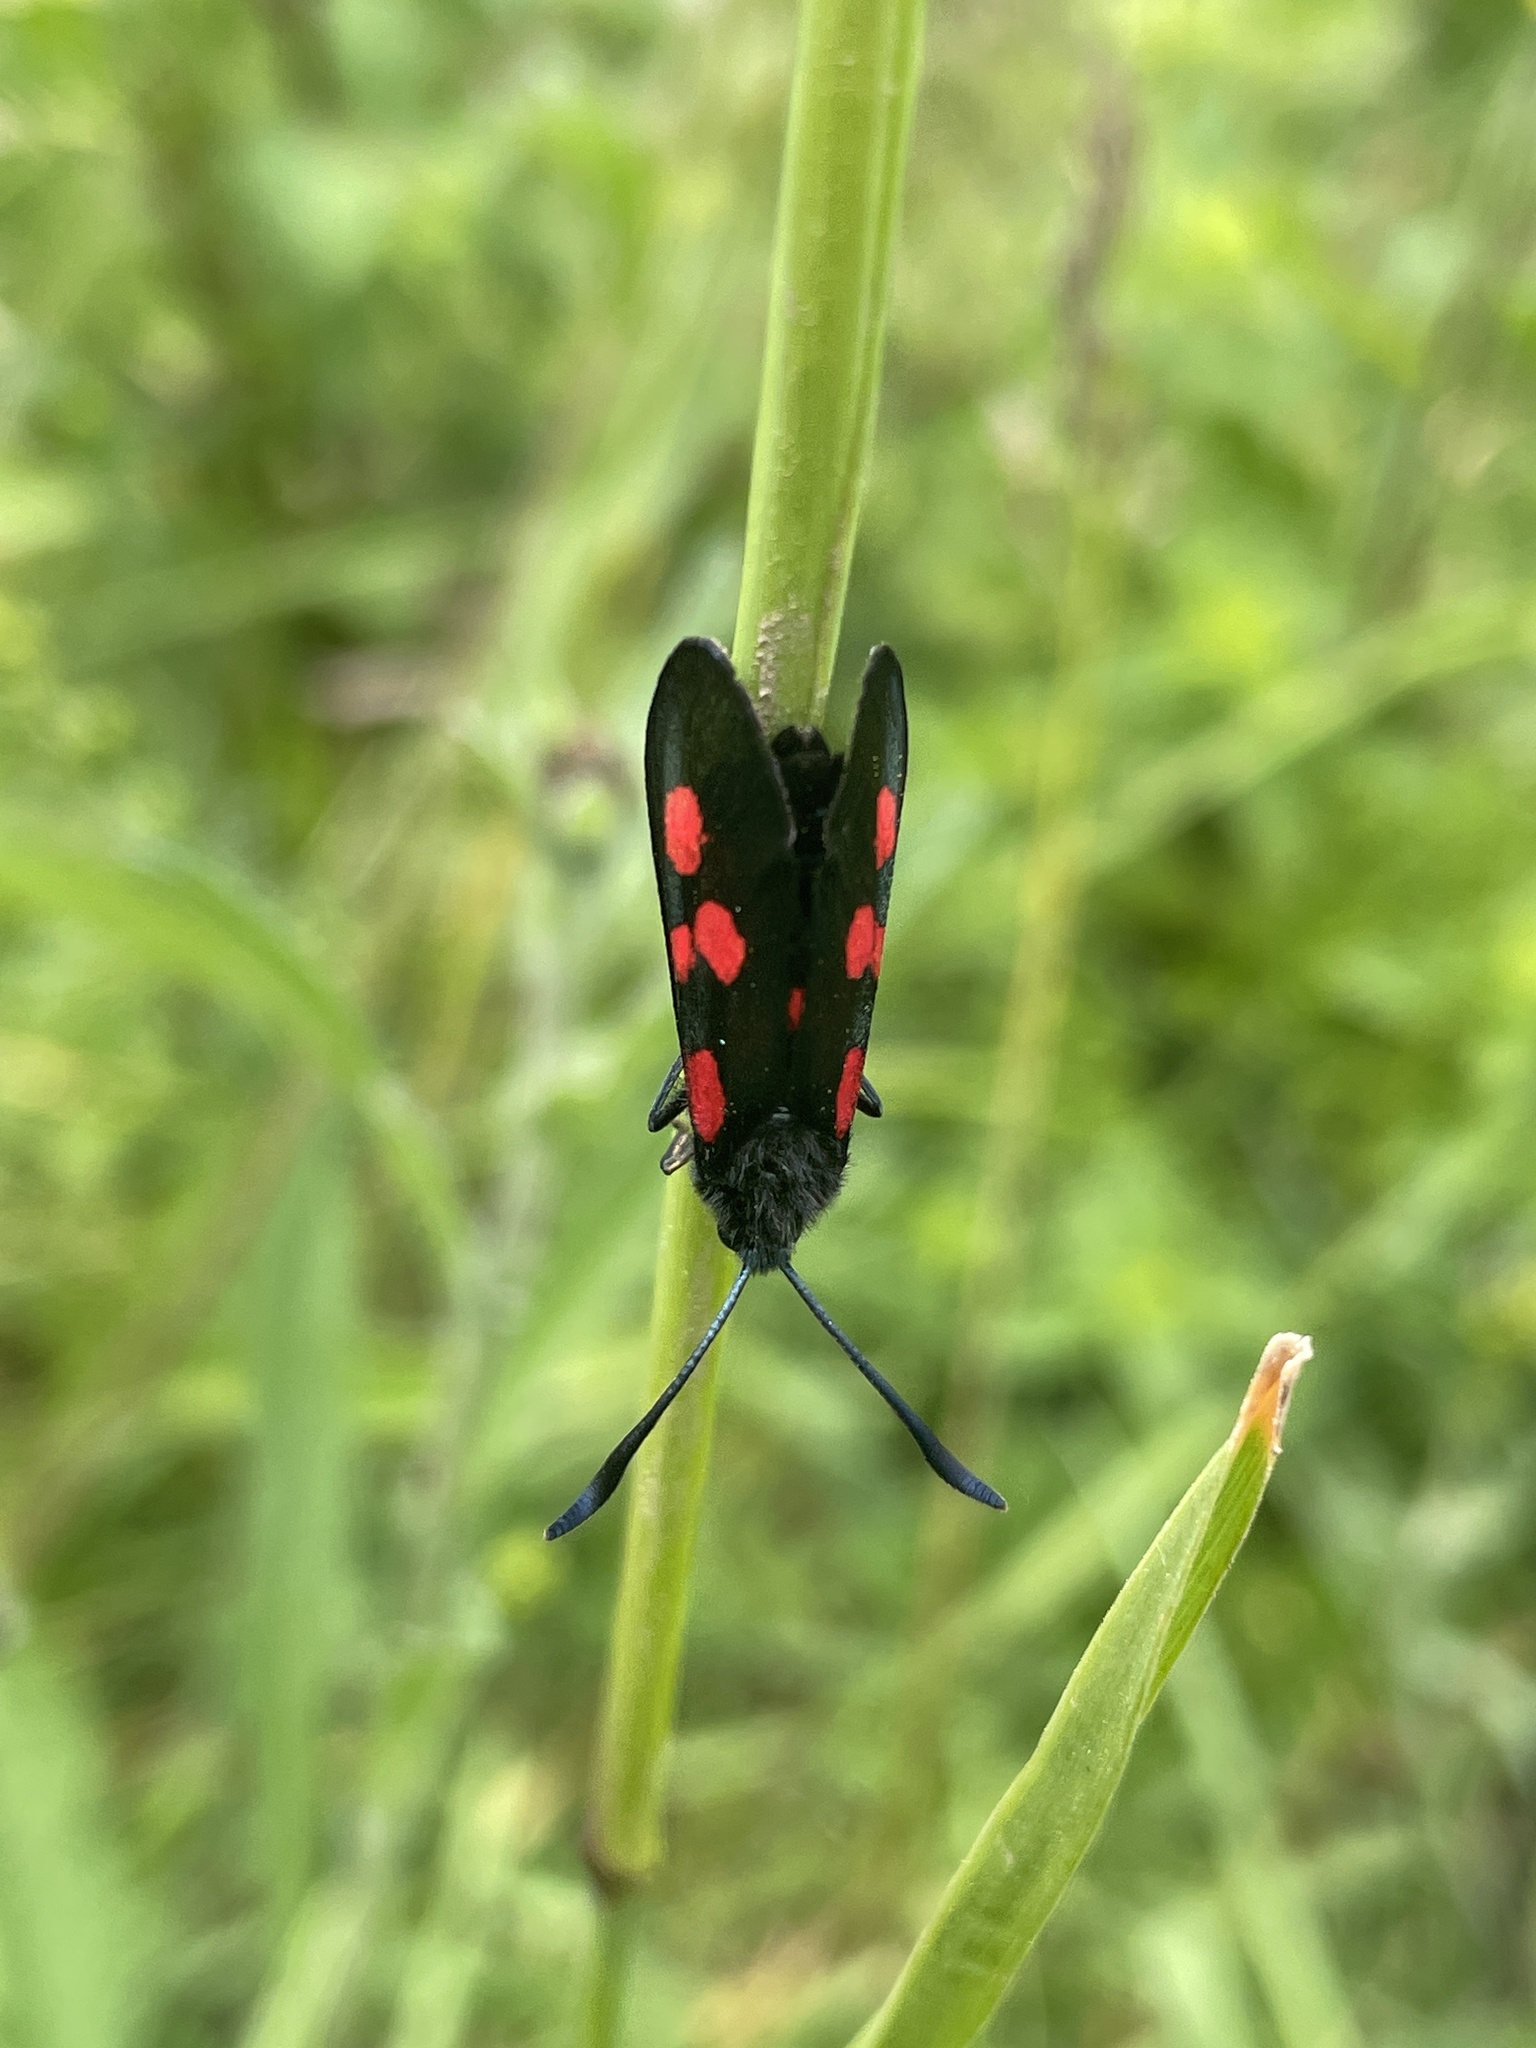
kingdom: Animalia
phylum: Arthropoda
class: Insecta
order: Lepidoptera
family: Zygaenidae
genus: Zygaena
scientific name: Zygaena trifolii
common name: Five-spot burnet
